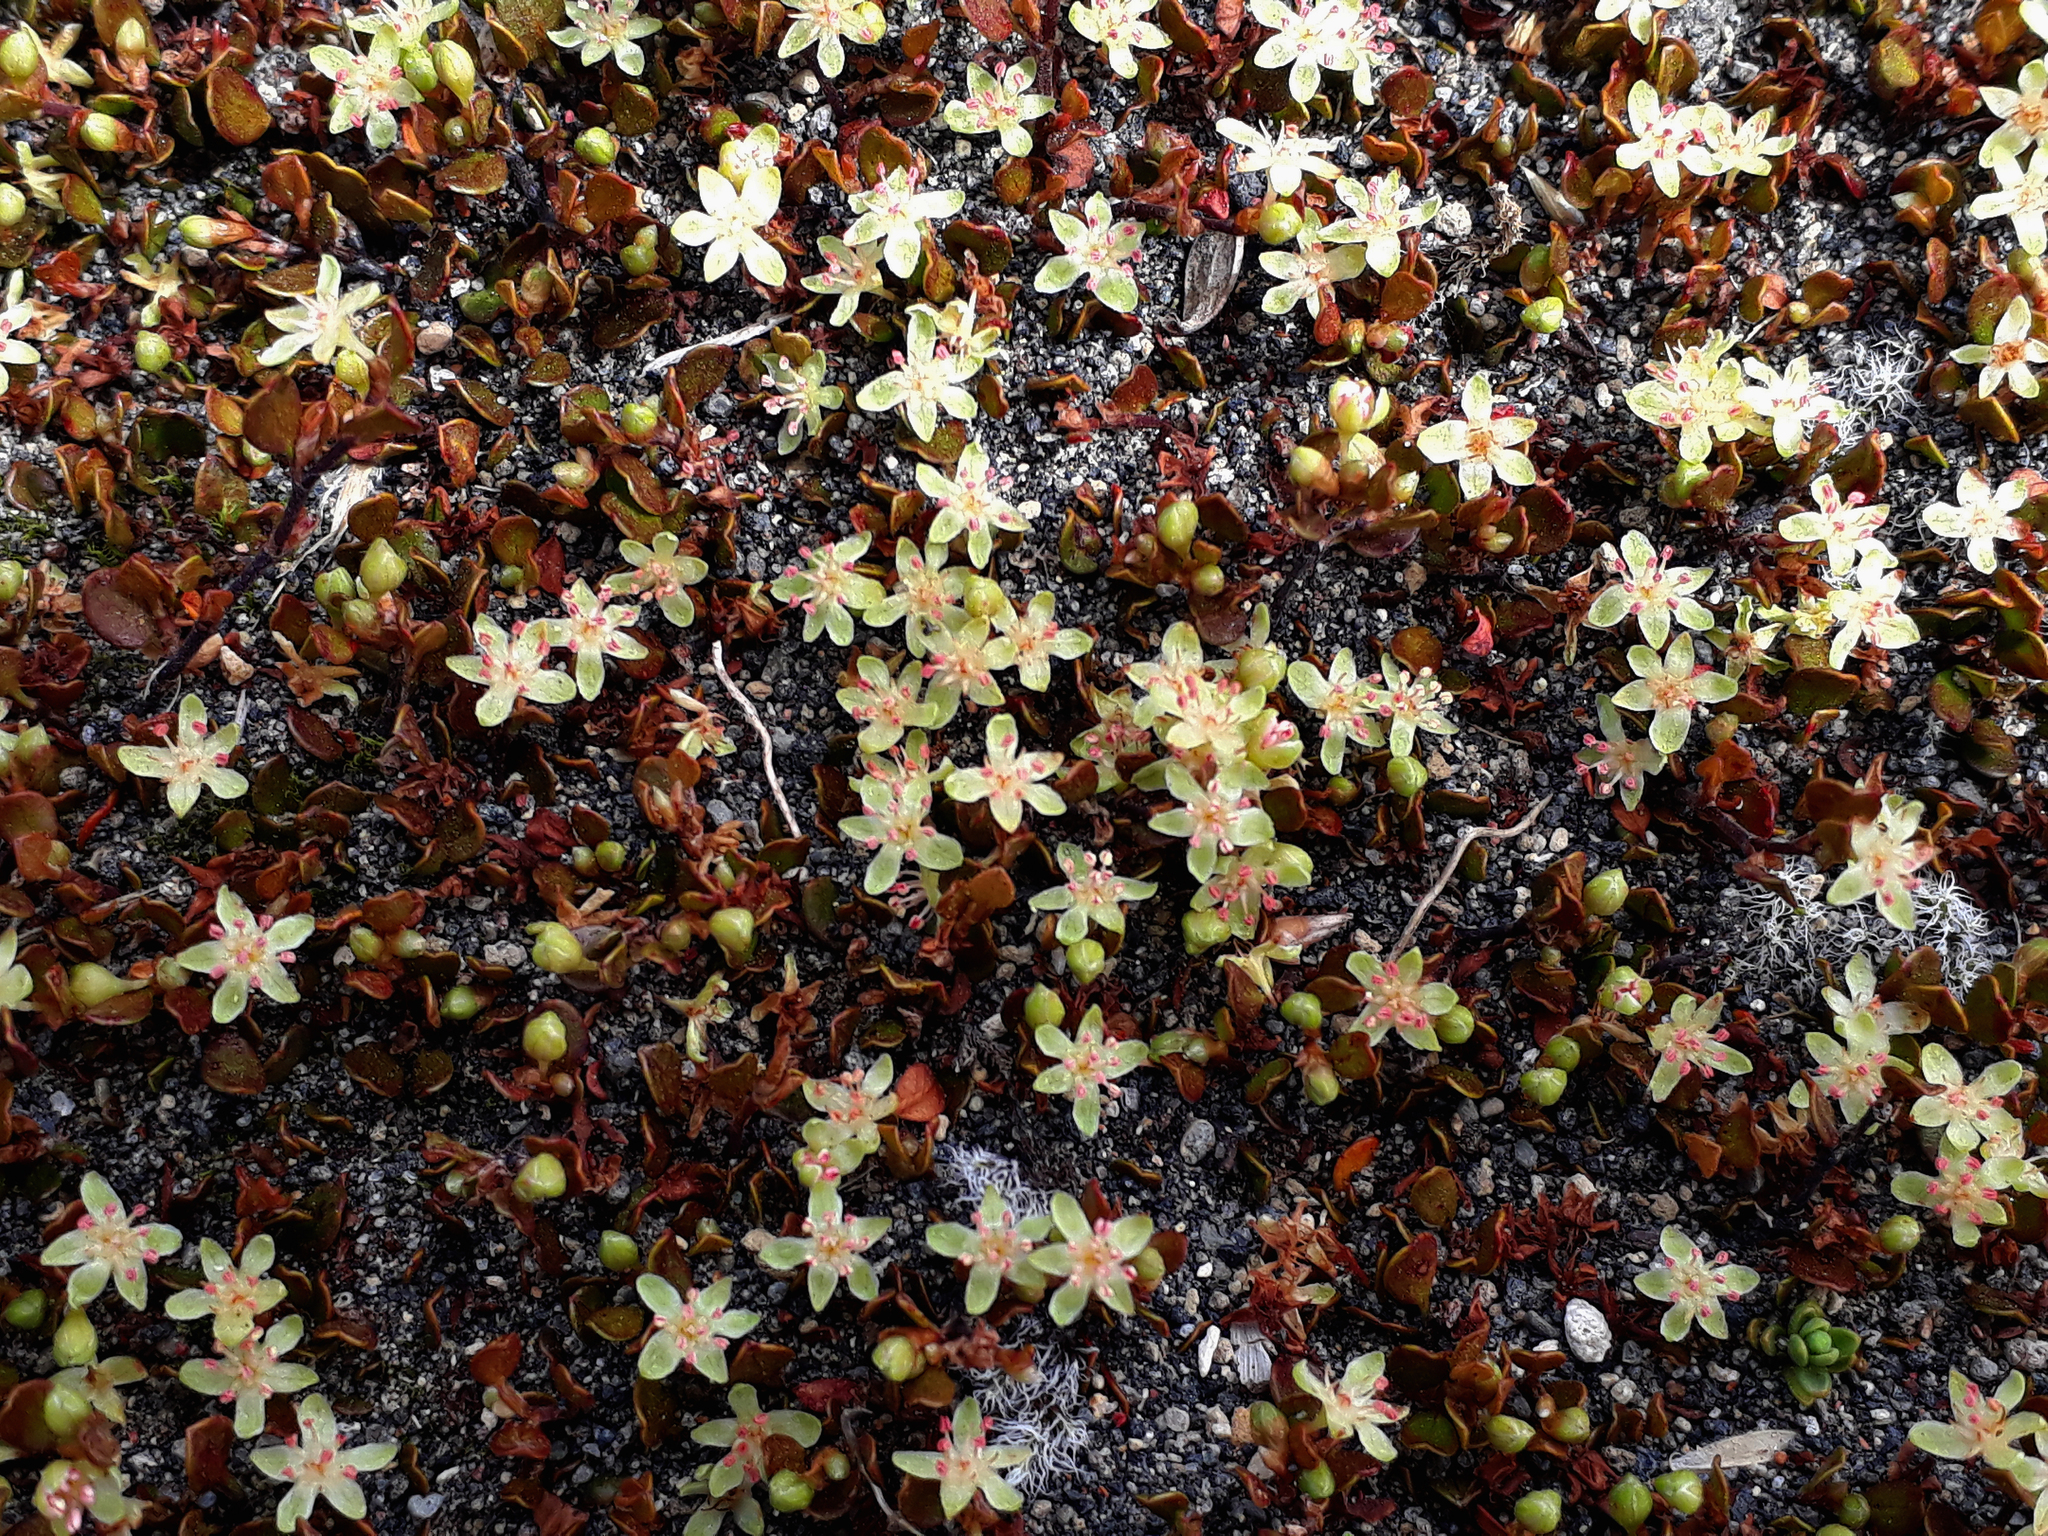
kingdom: Plantae
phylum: Tracheophyta
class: Magnoliopsida
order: Caryophyllales
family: Polygonaceae
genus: Muehlenbeckia
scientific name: Muehlenbeckia axillaris
